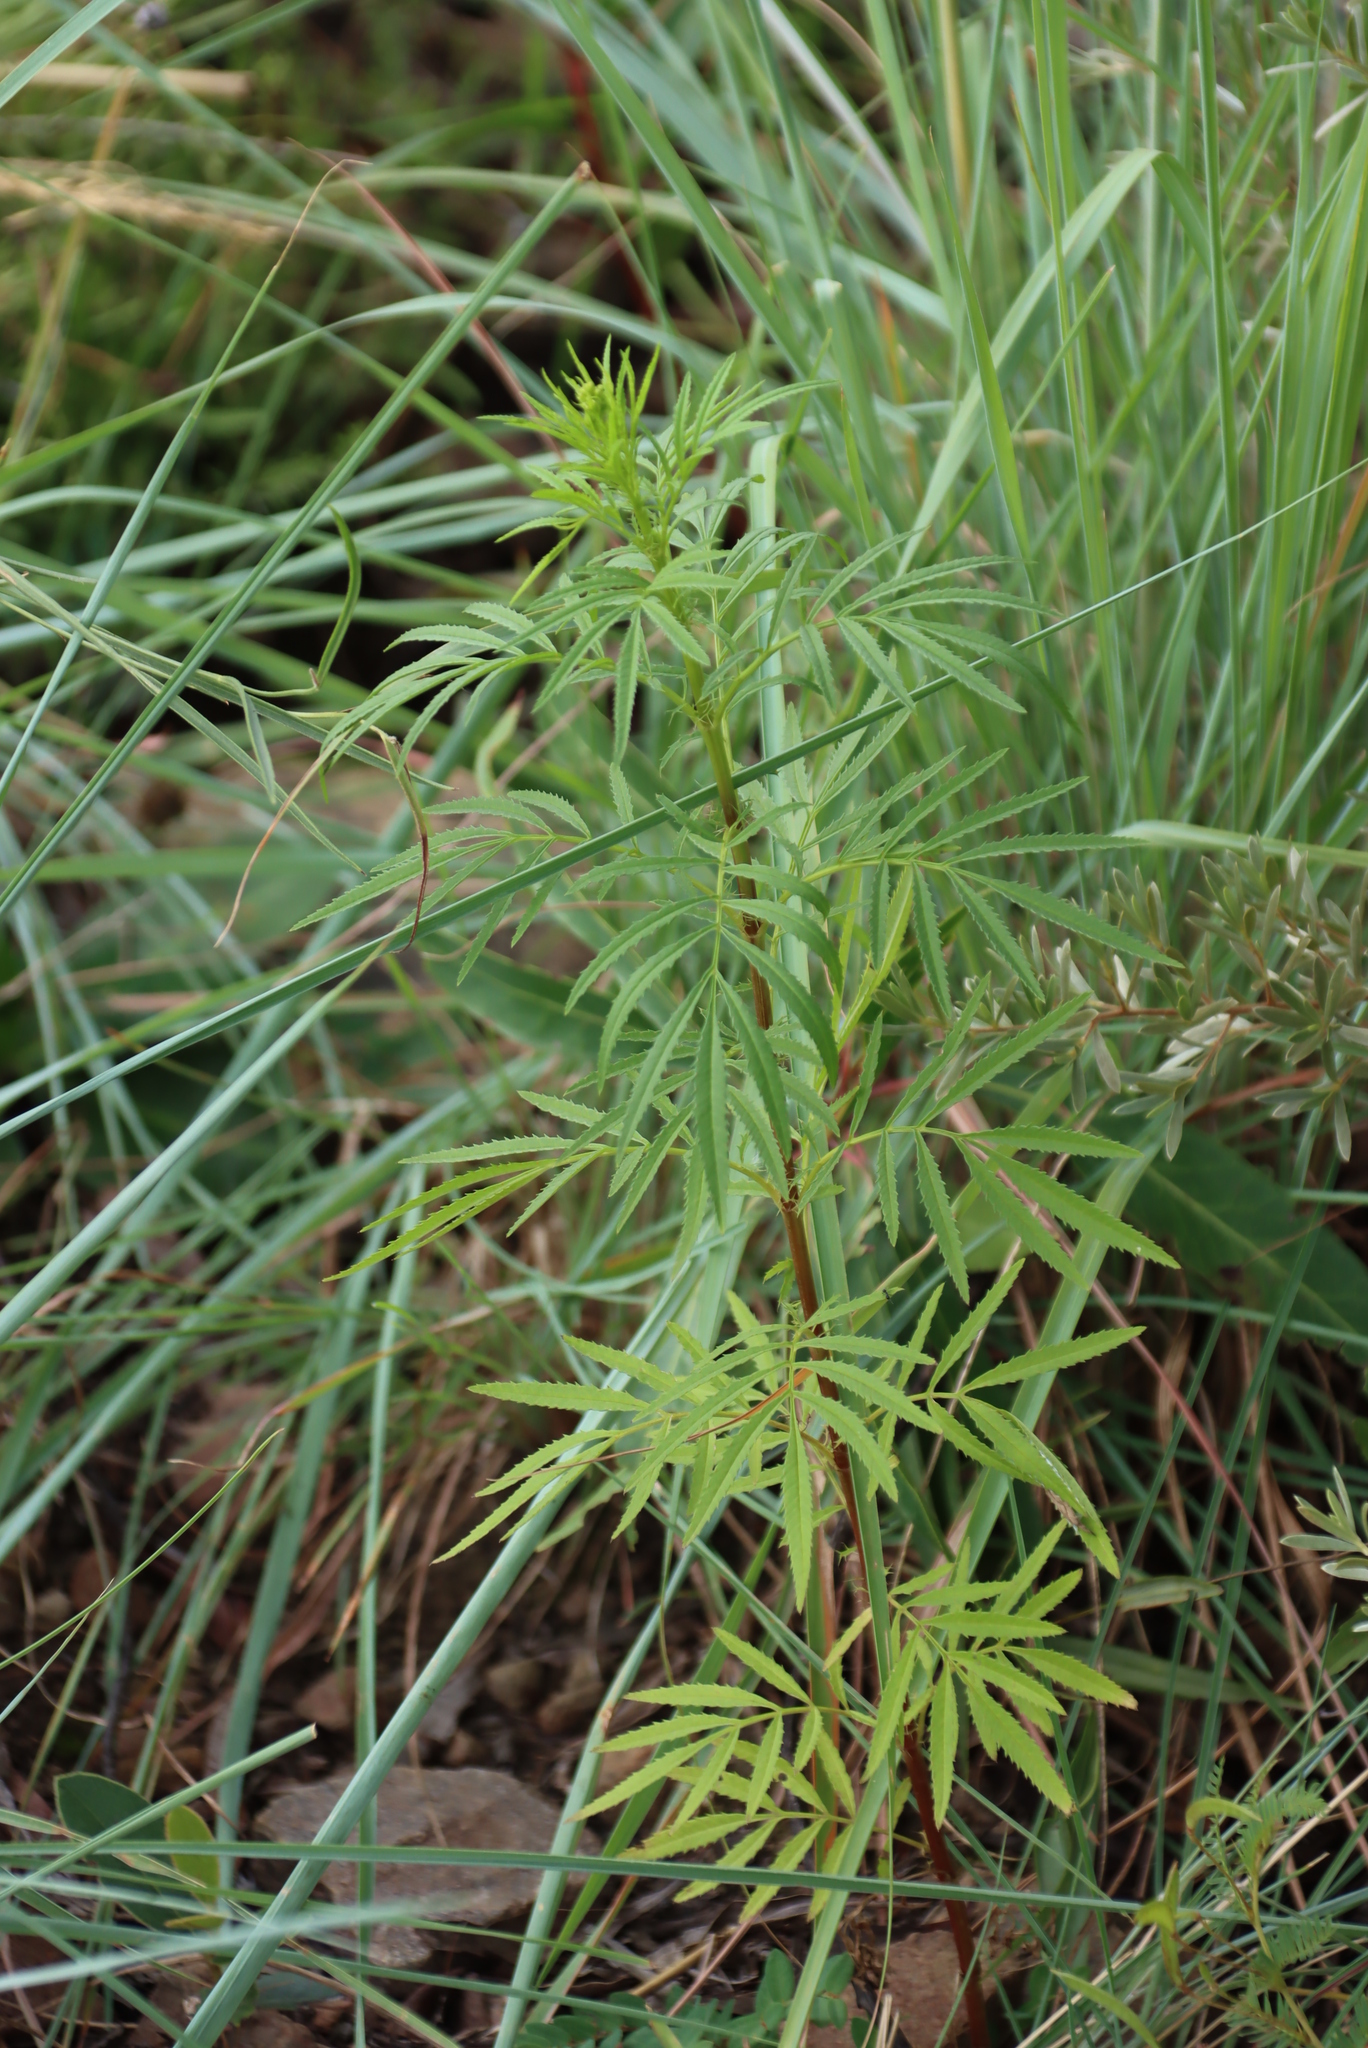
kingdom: Plantae
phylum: Tracheophyta
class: Magnoliopsida
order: Asterales
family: Asteraceae
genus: Tagetes
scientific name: Tagetes minuta
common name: Muster john henry
